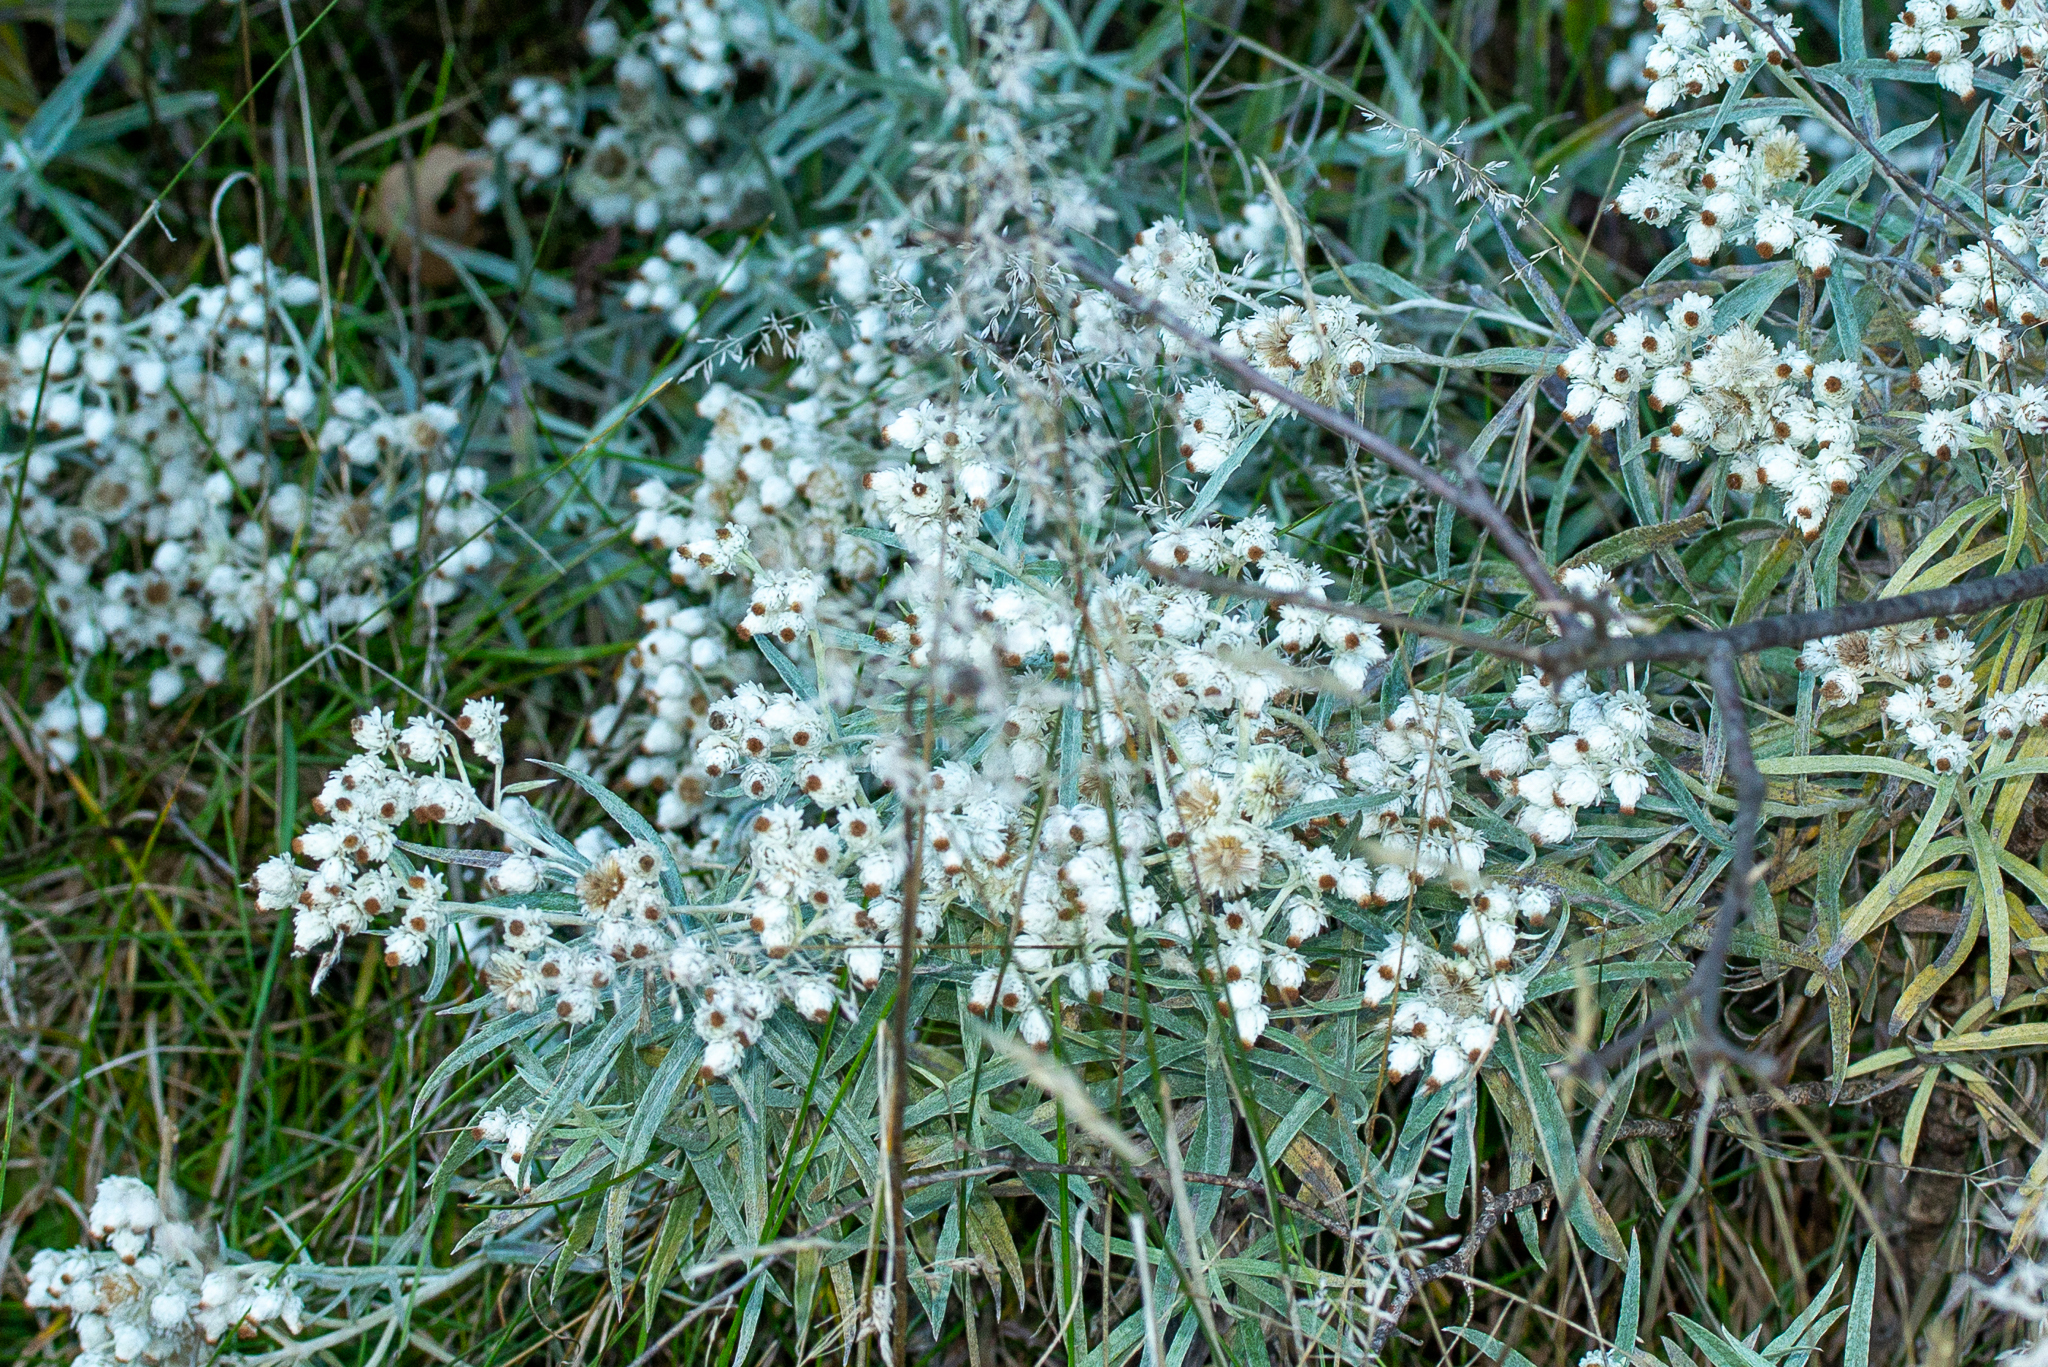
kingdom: Plantae
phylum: Tracheophyta
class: Magnoliopsida
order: Asterales
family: Asteraceae
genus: Anaphalis
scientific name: Anaphalis margaritacea
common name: Pearly everlasting
